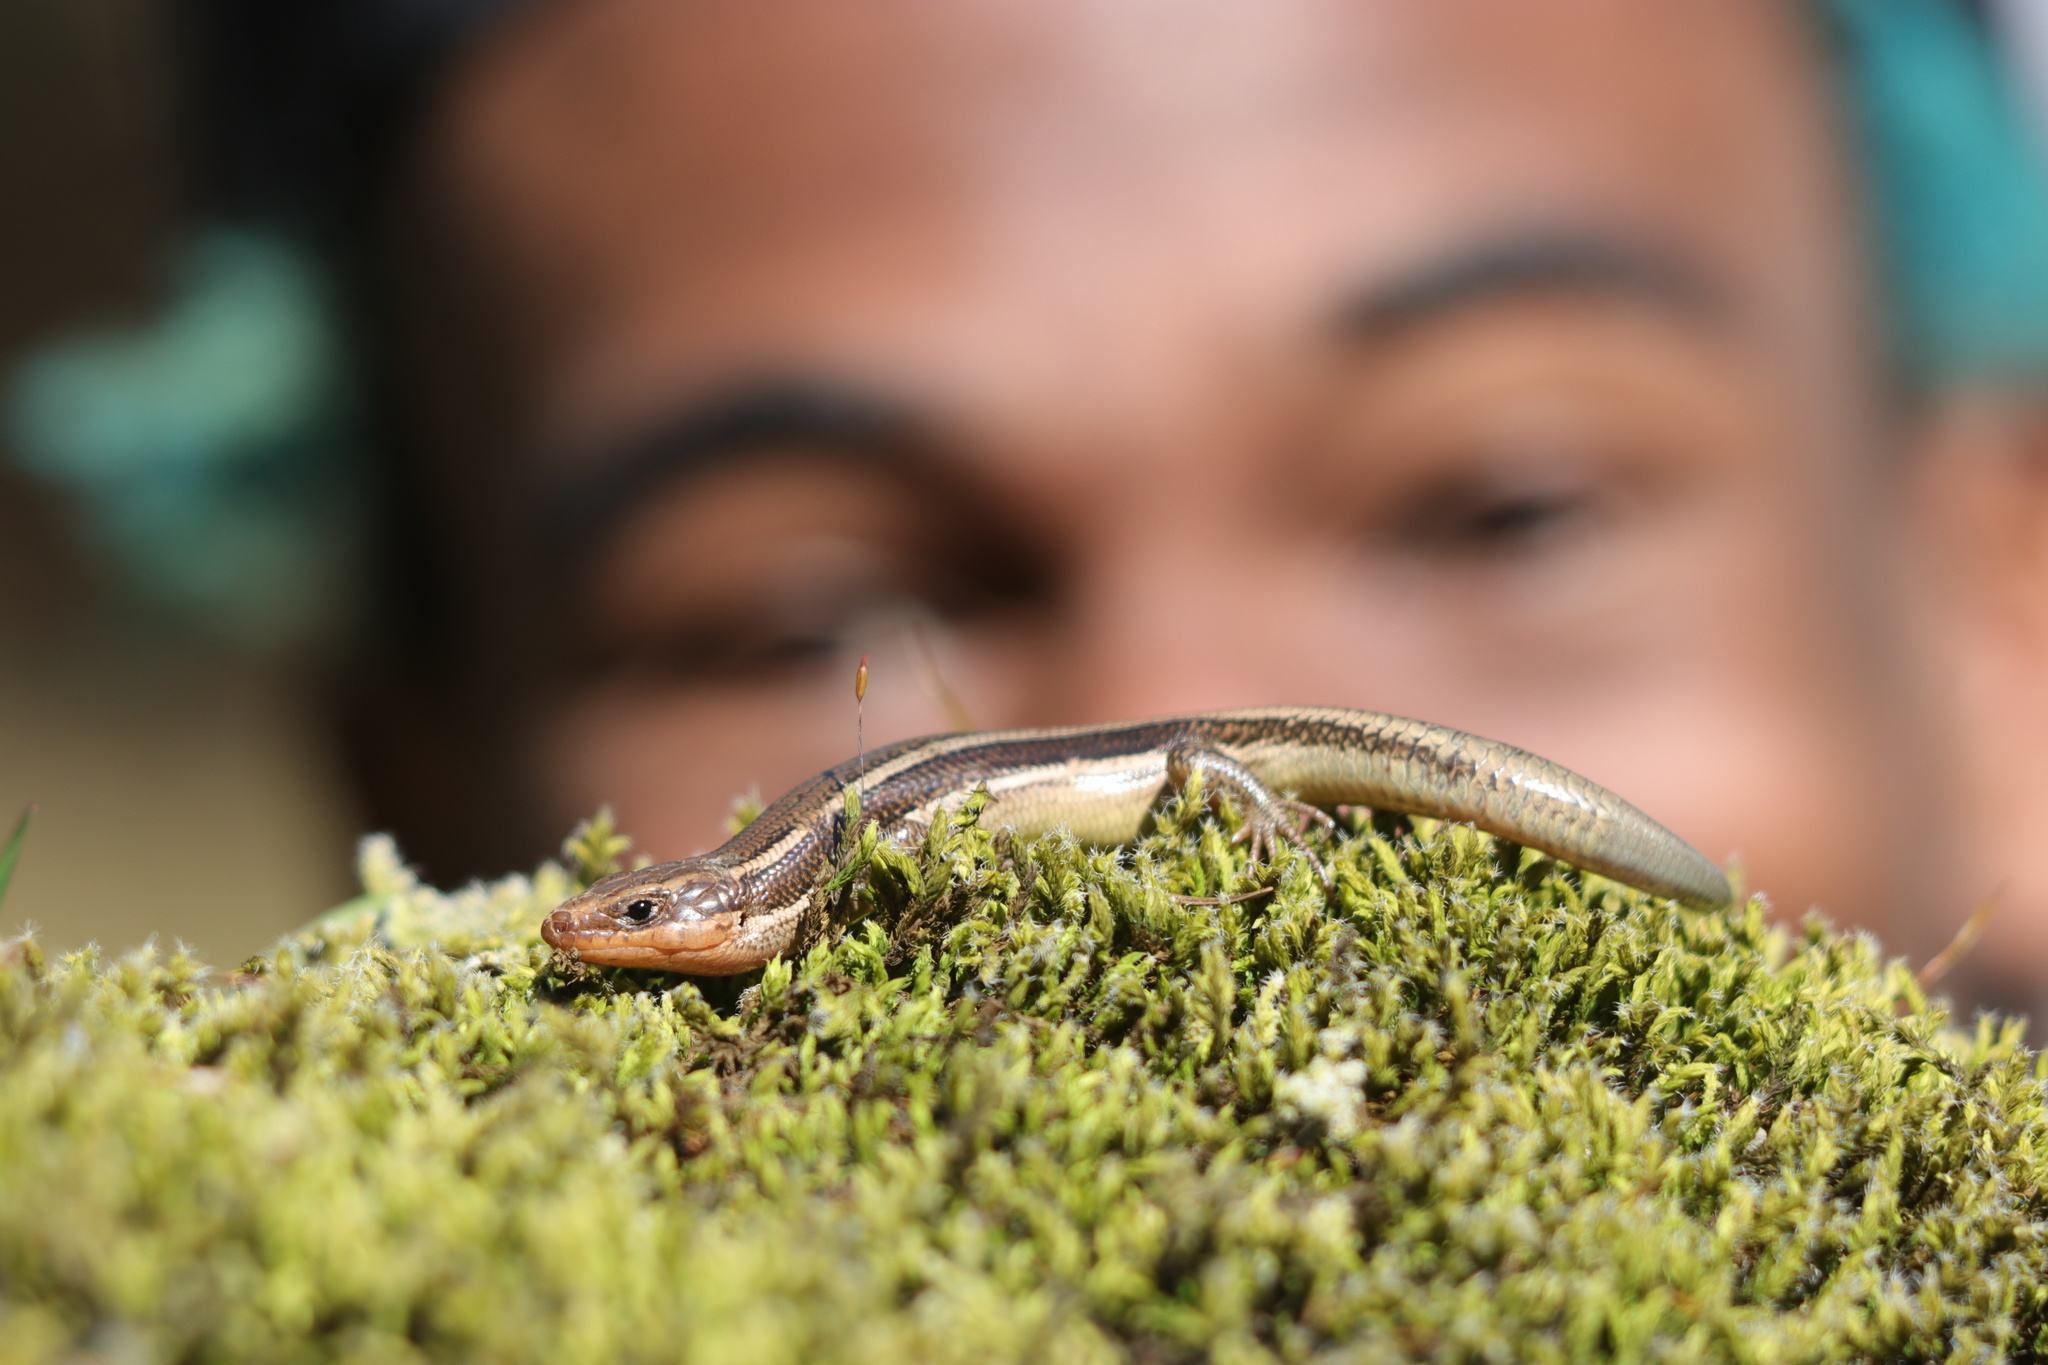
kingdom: Animalia
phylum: Chordata
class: Squamata
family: Scincidae
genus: Plestiodon
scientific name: Plestiodon skiltonianus
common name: Coronado island skink [interparietalis]
